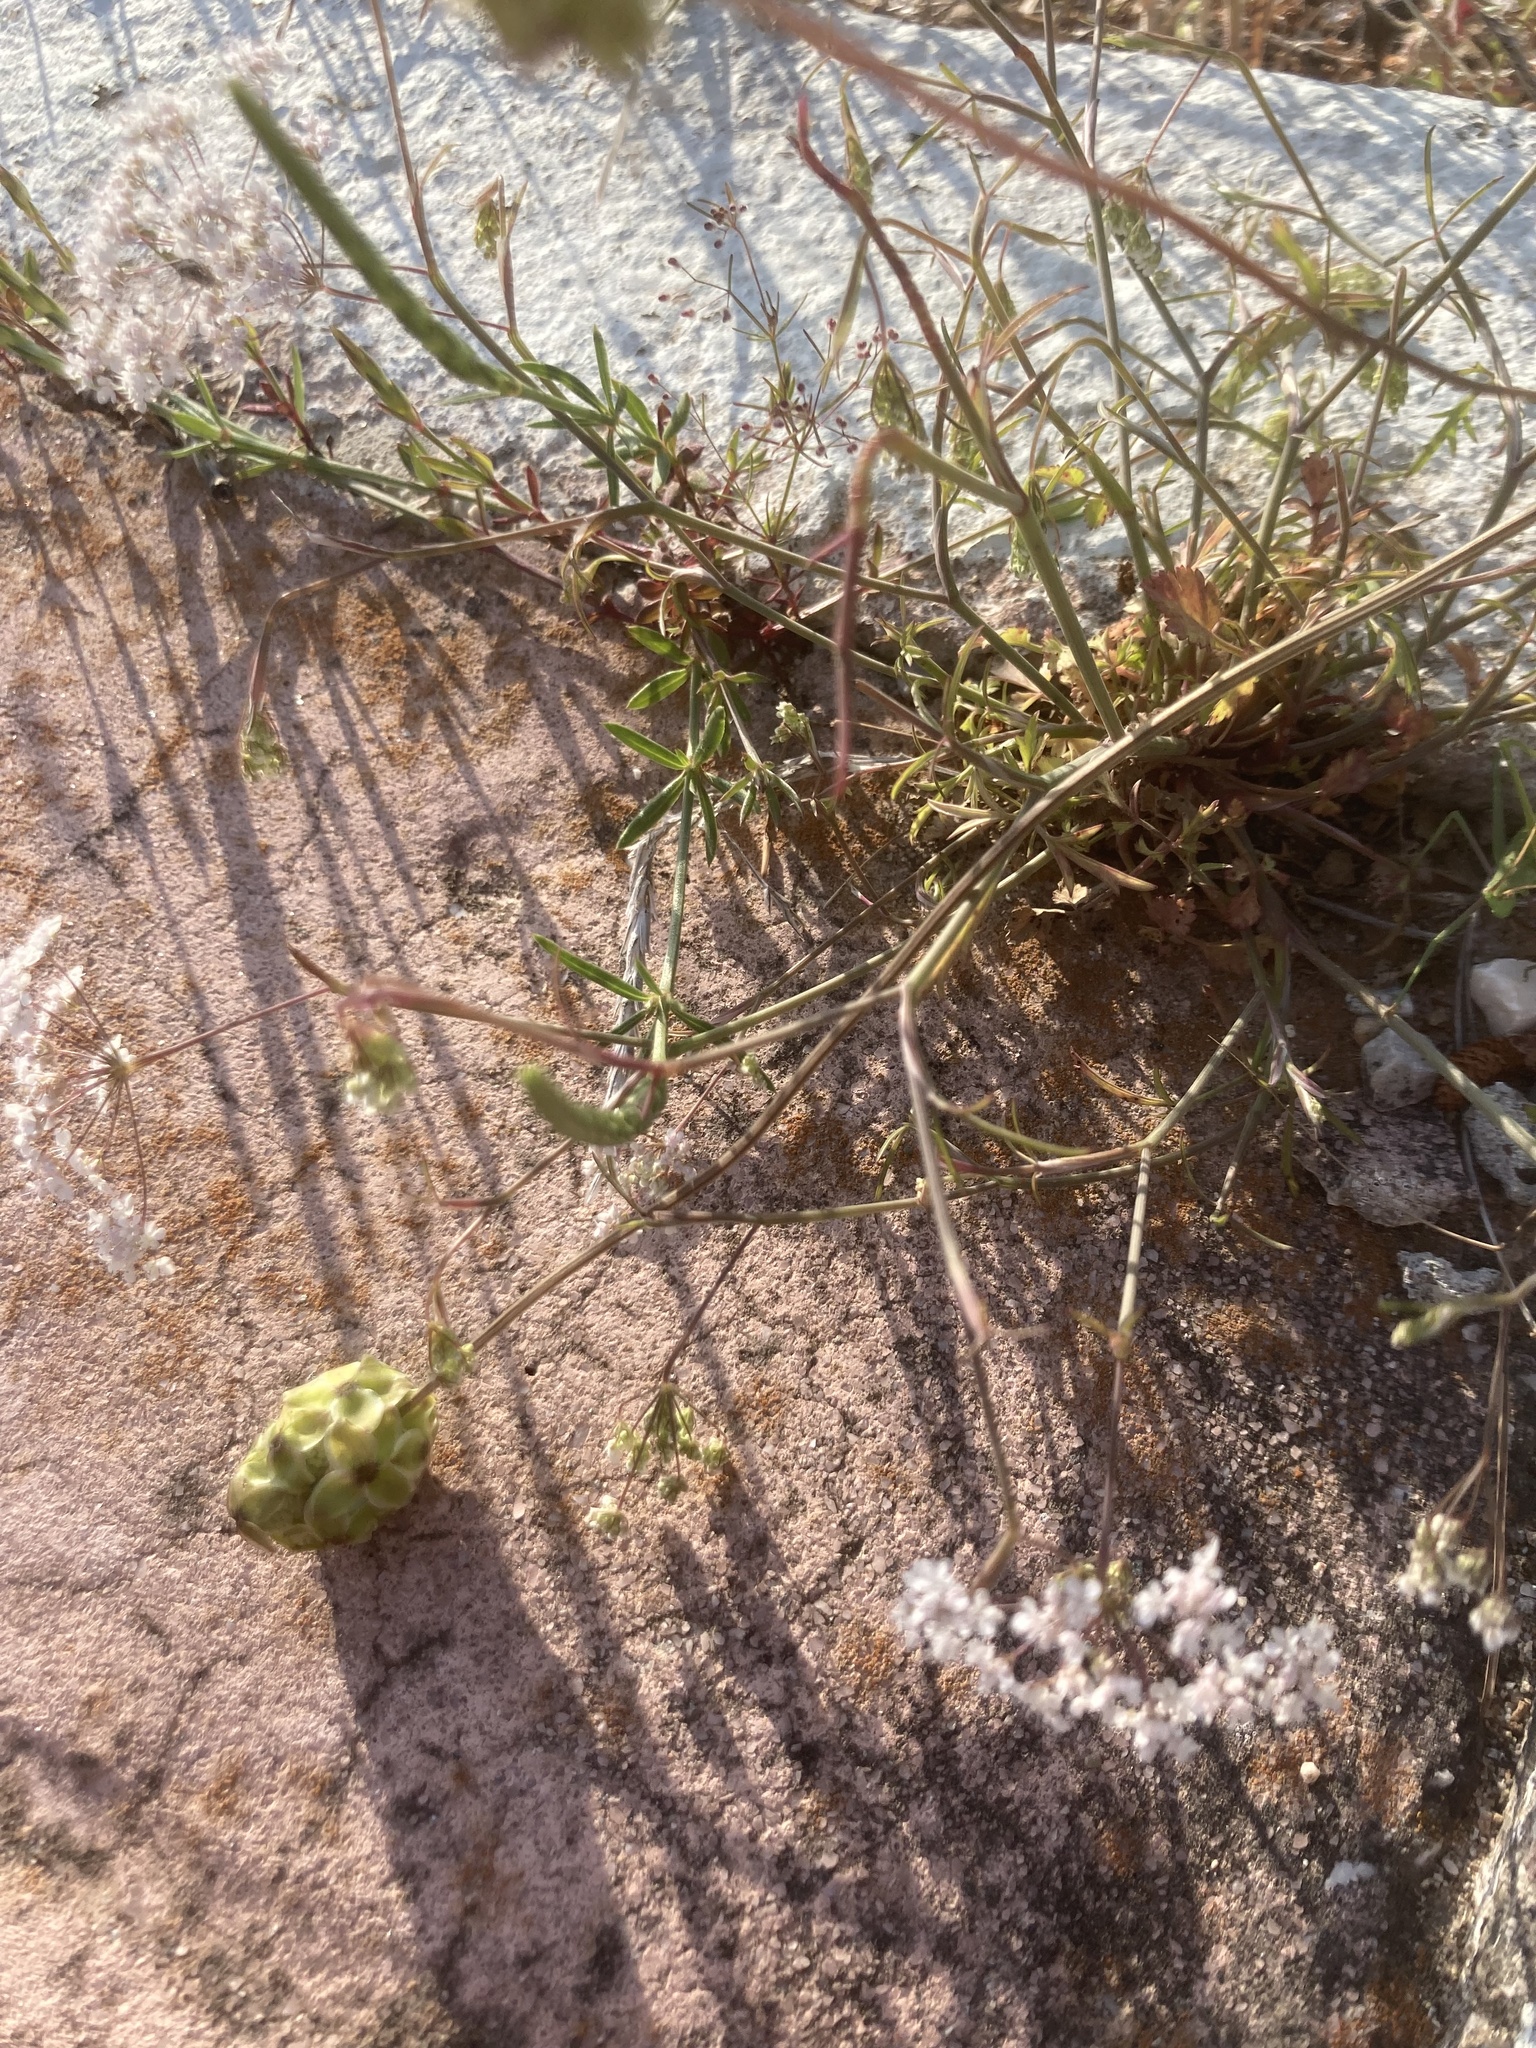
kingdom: Plantae
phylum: Tracheophyta
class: Magnoliopsida
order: Rosales
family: Rosaceae
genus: Poterium
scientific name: Poterium
